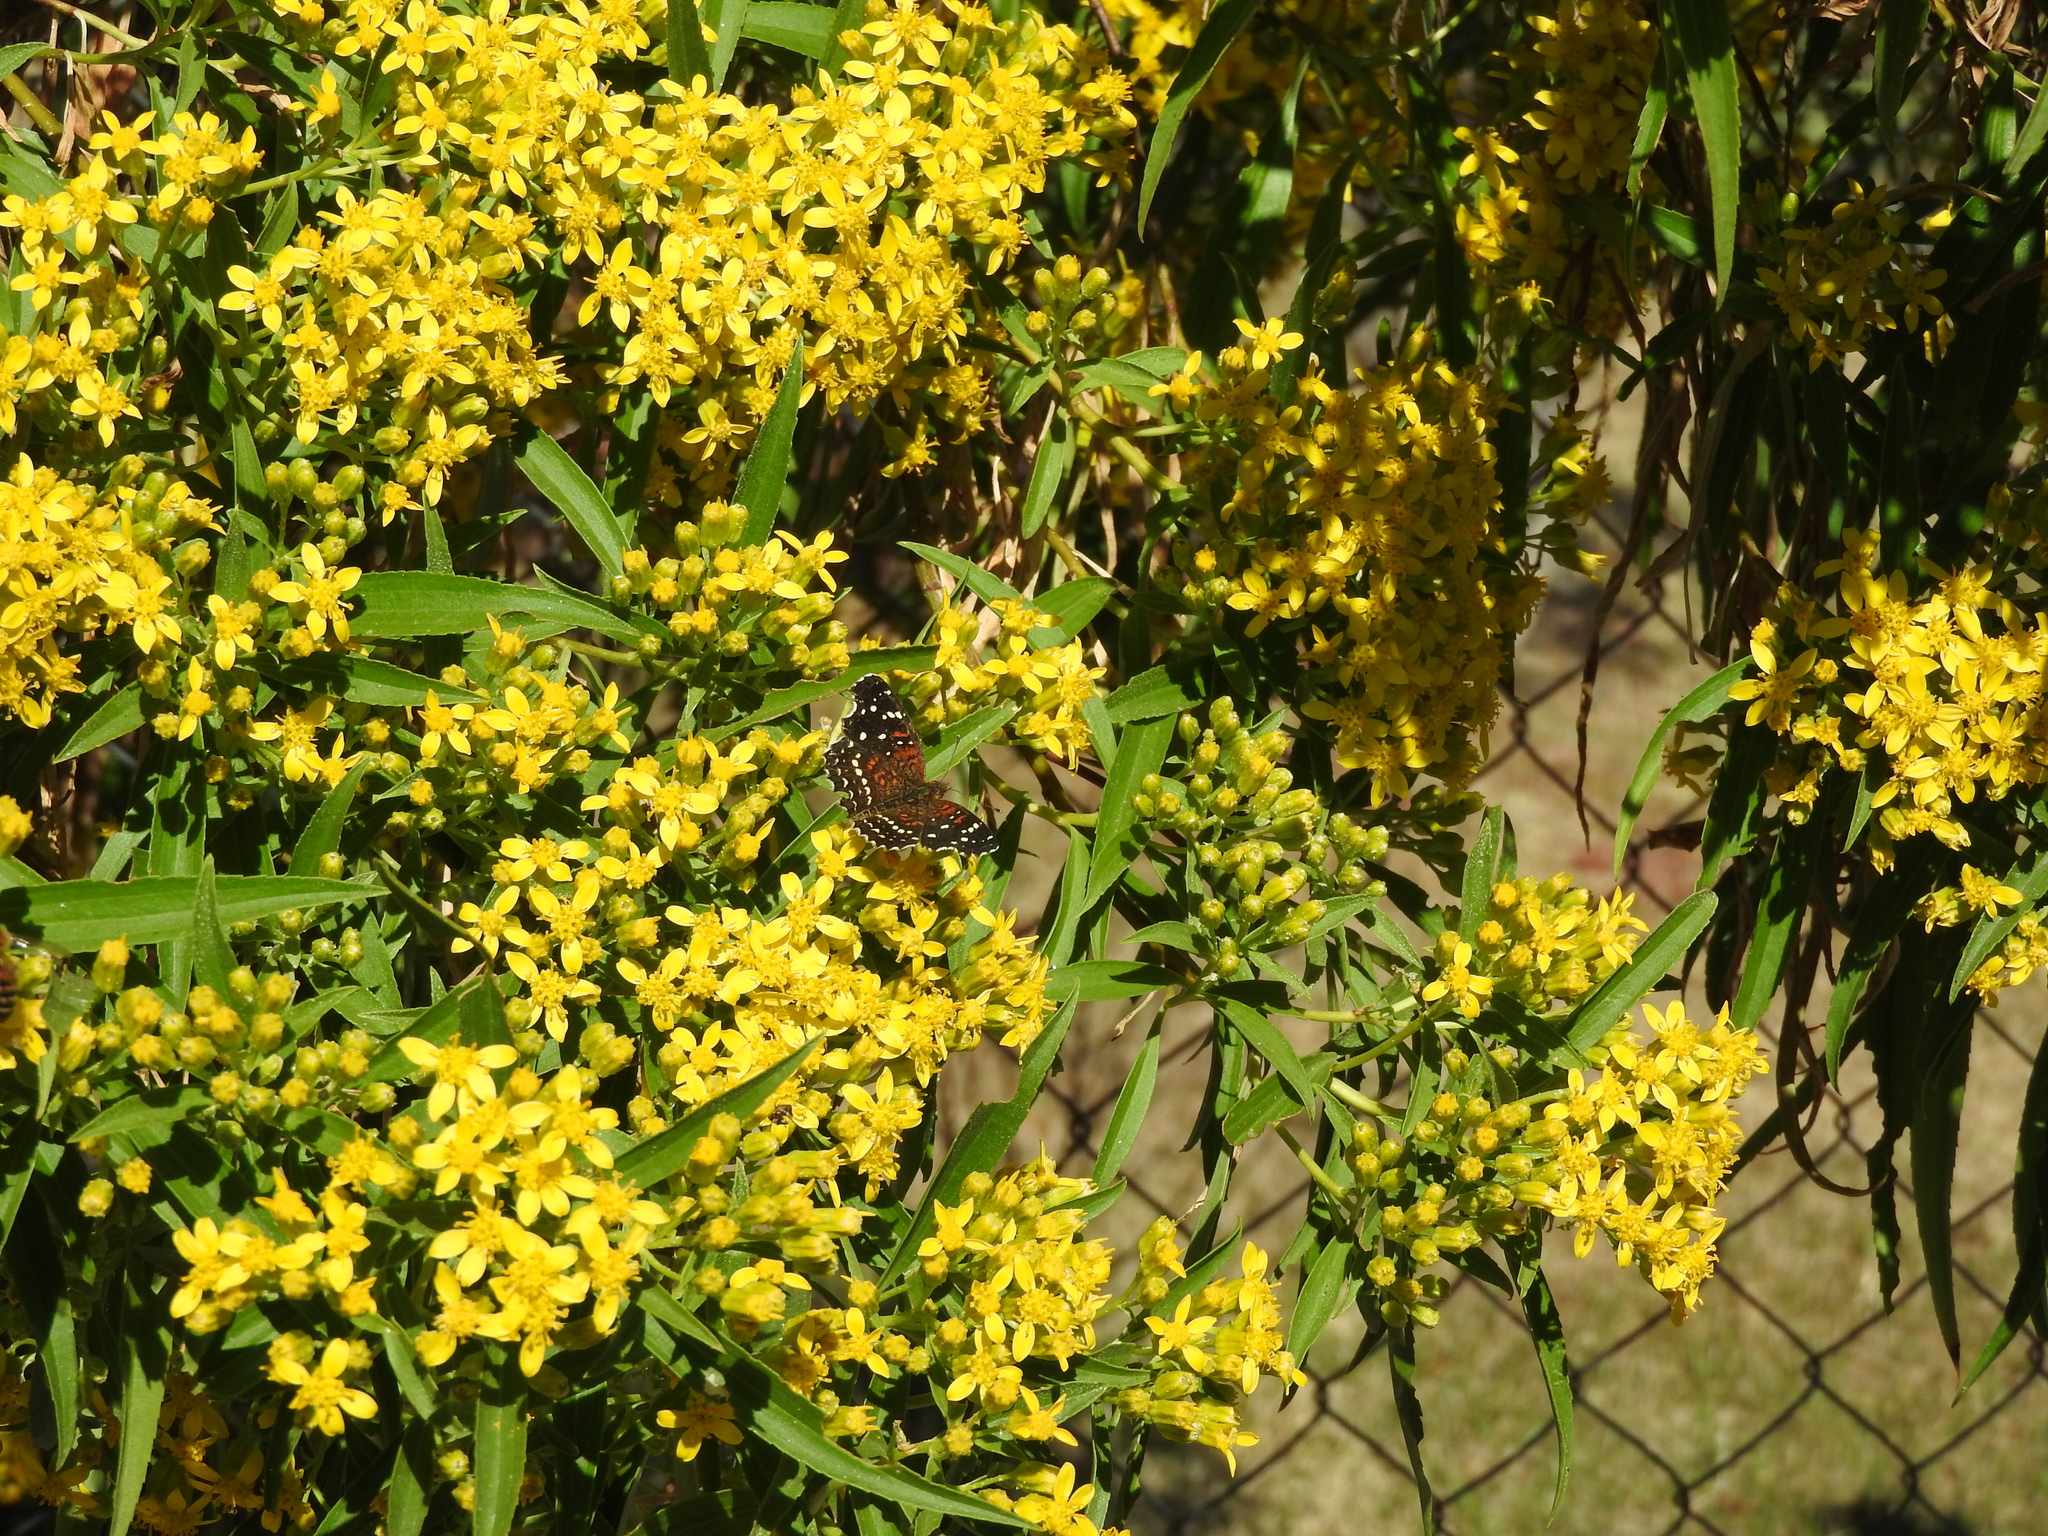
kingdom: Animalia
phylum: Arthropoda
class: Insecta
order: Lepidoptera
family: Nymphalidae
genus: Anthanassa
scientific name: Anthanassa texana
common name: Texan crescent
